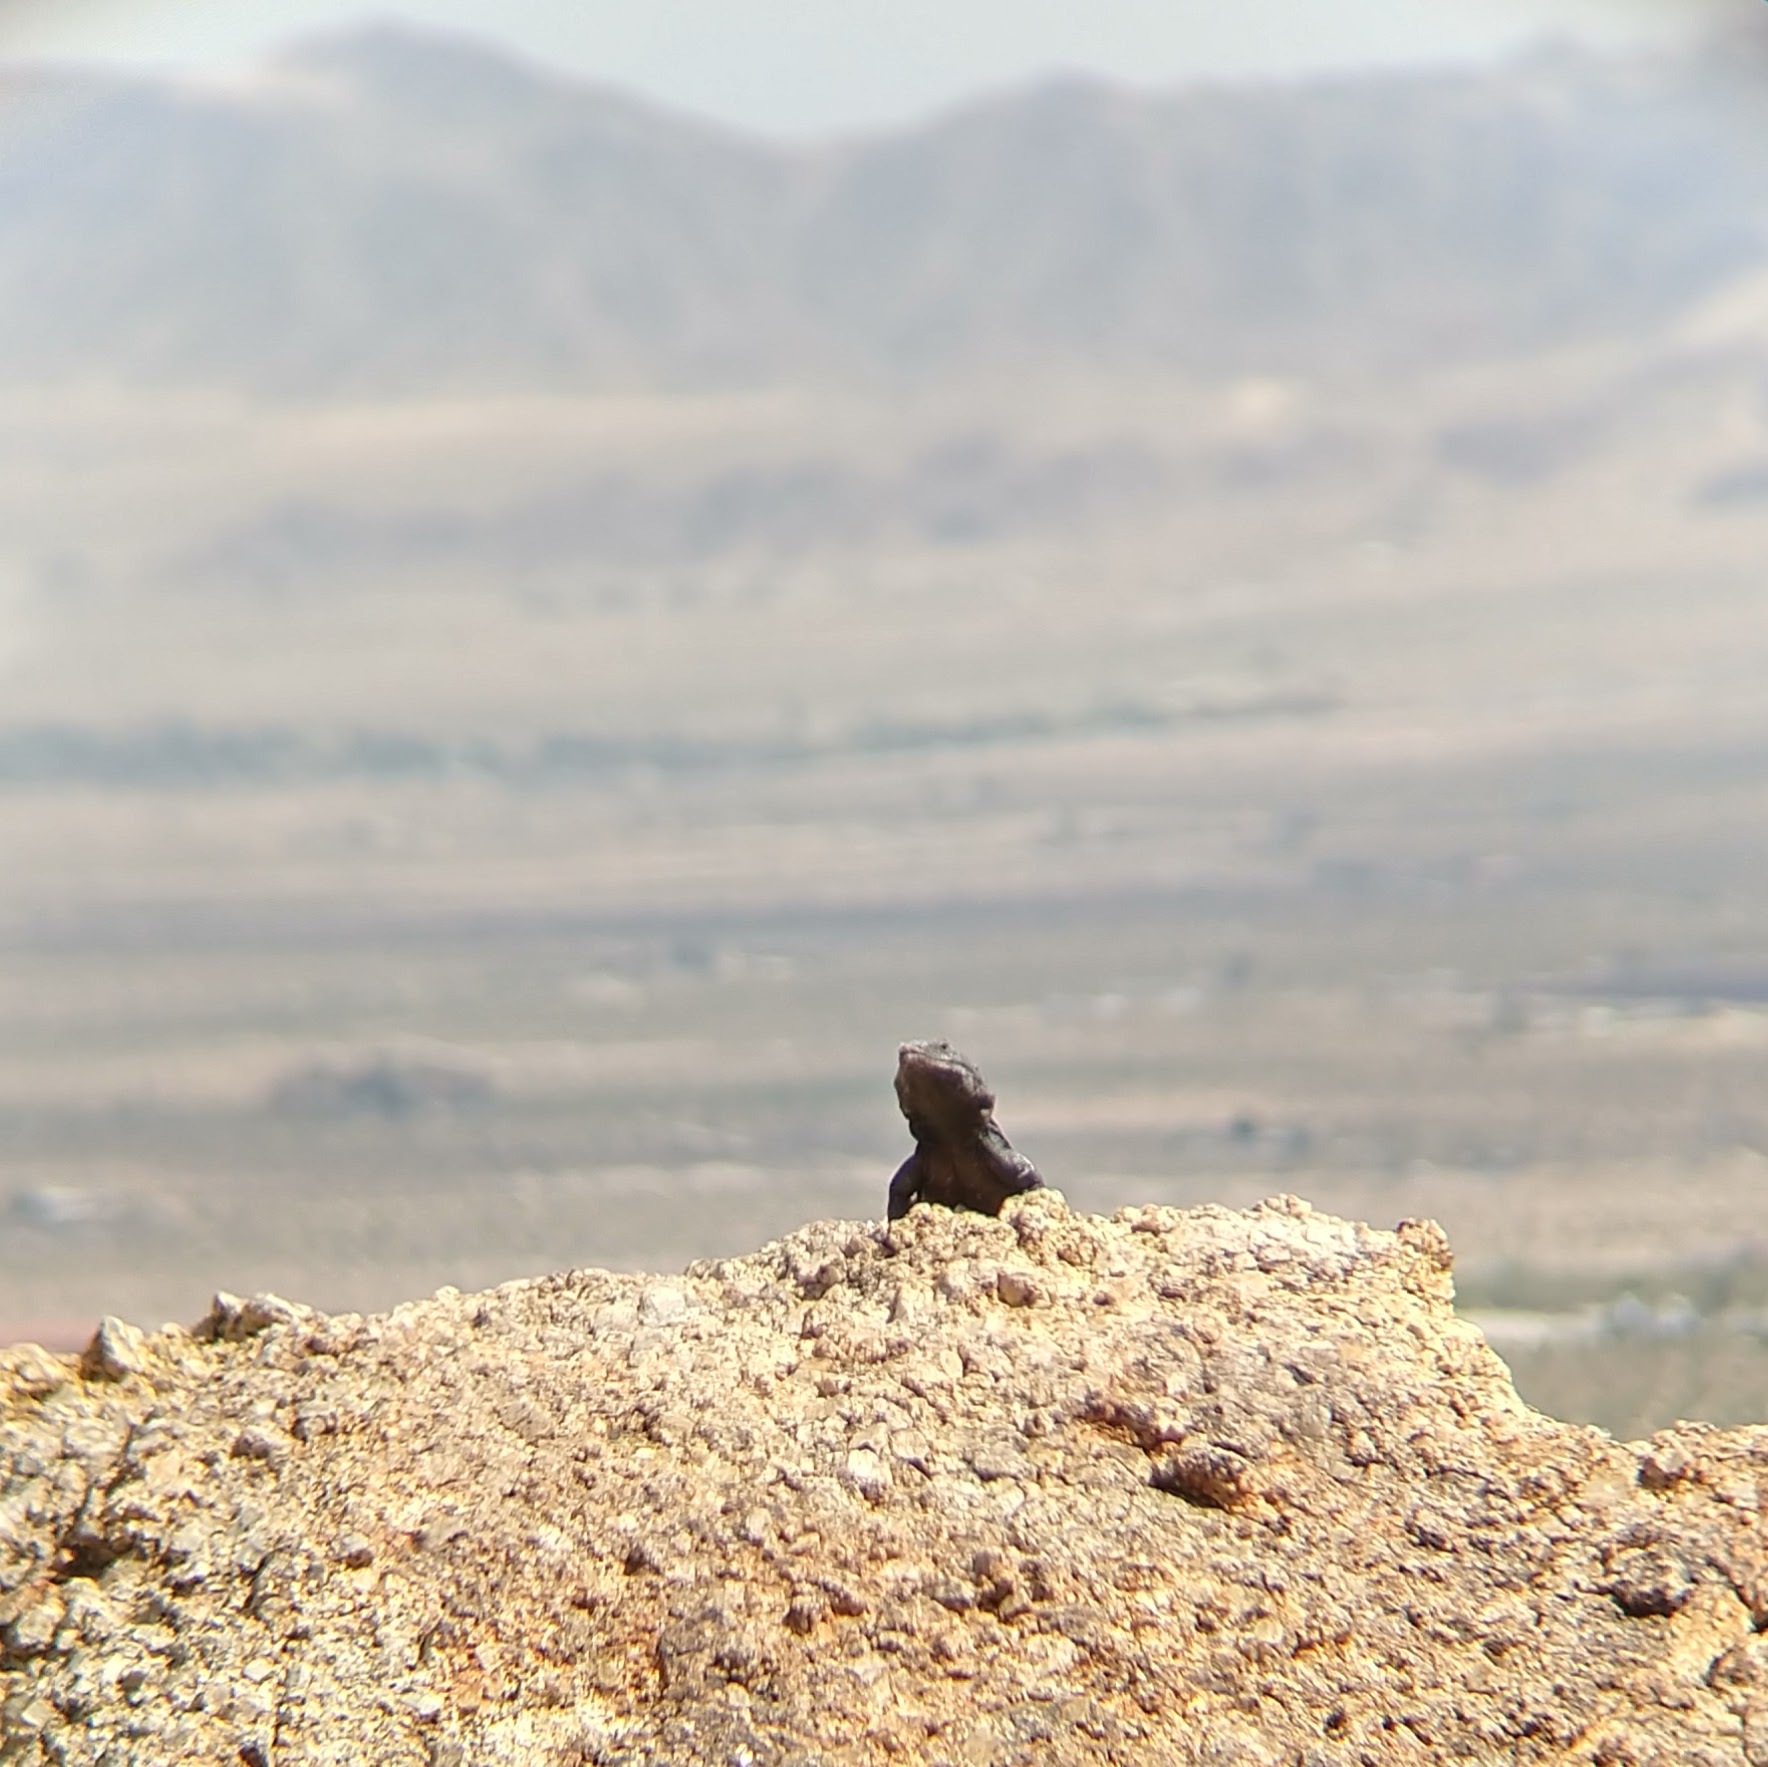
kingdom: Animalia
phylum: Chordata
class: Squamata
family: Iguanidae
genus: Sauromalus
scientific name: Sauromalus ater
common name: Northern chuckwalla
